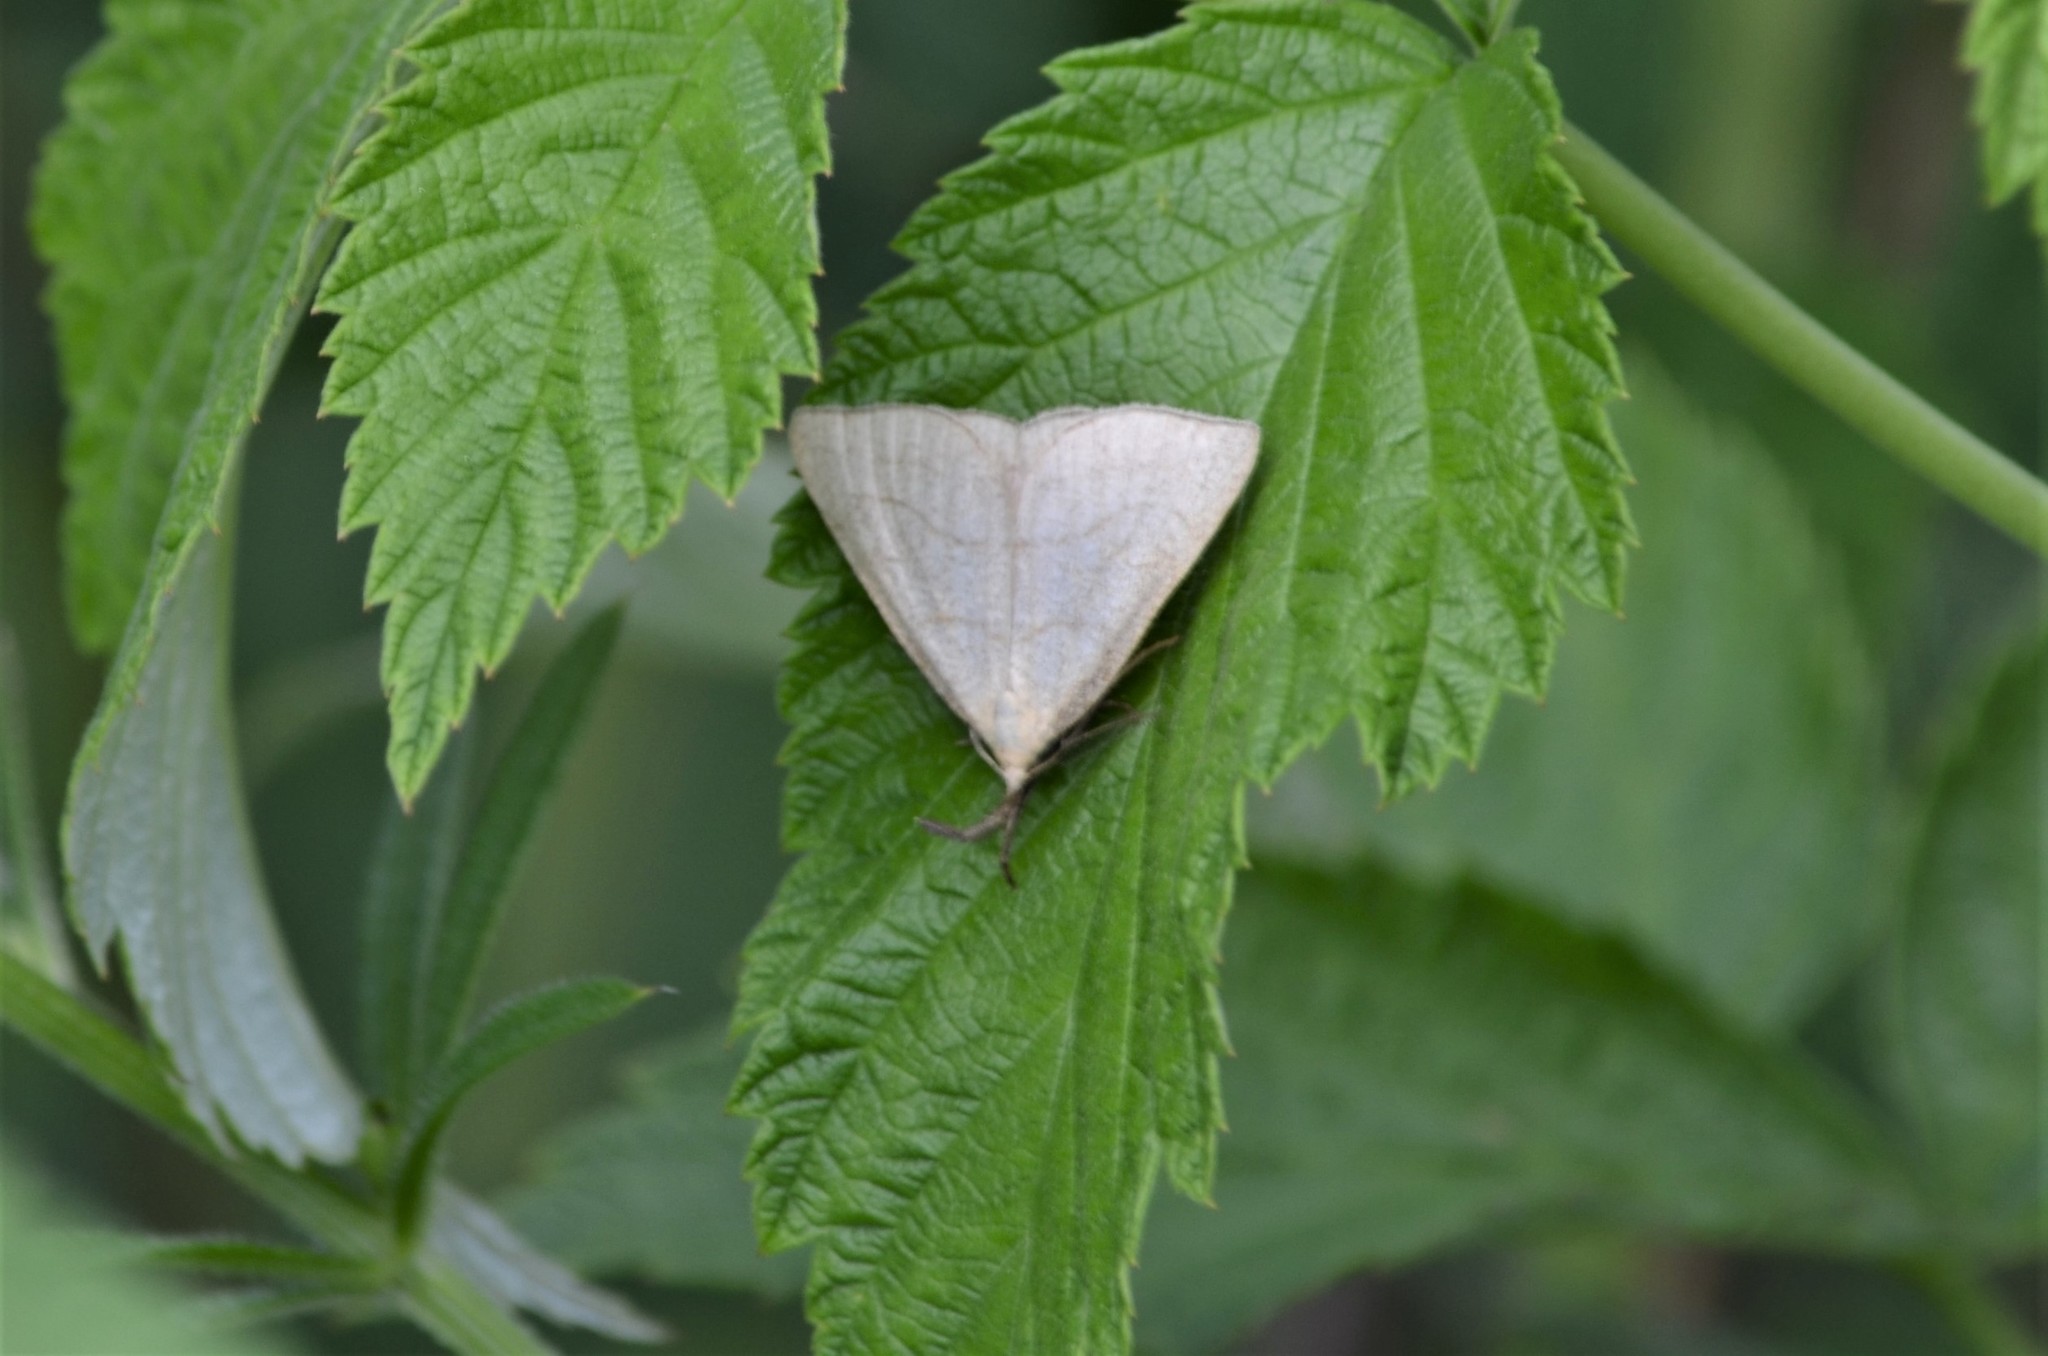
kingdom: Animalia
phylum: Arthropoda
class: Insecta
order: Lepidoptera
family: Erebidae
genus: Polypogon
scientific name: Polypogon tentacularia
